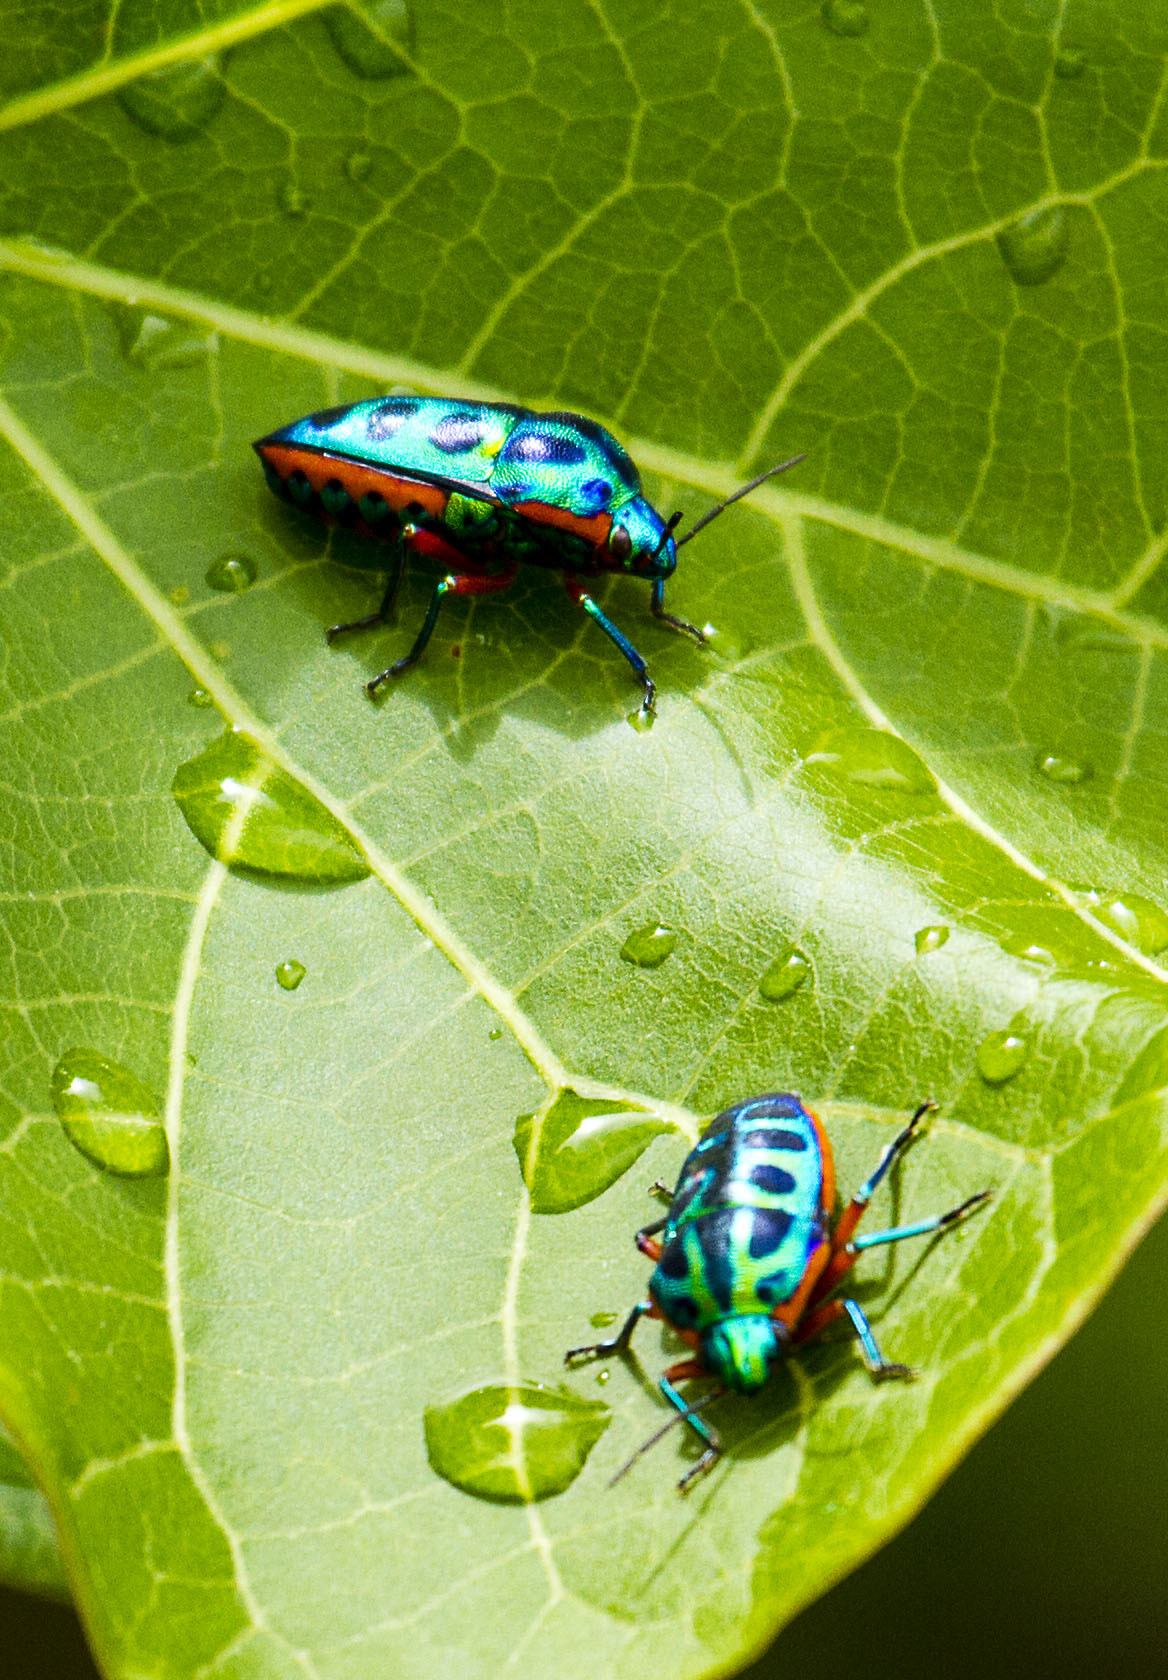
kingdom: Animalia
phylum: Arthropoda
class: Insecta
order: Hemiptera
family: Scutelleridae
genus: Calidea
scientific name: Calidea dregii
